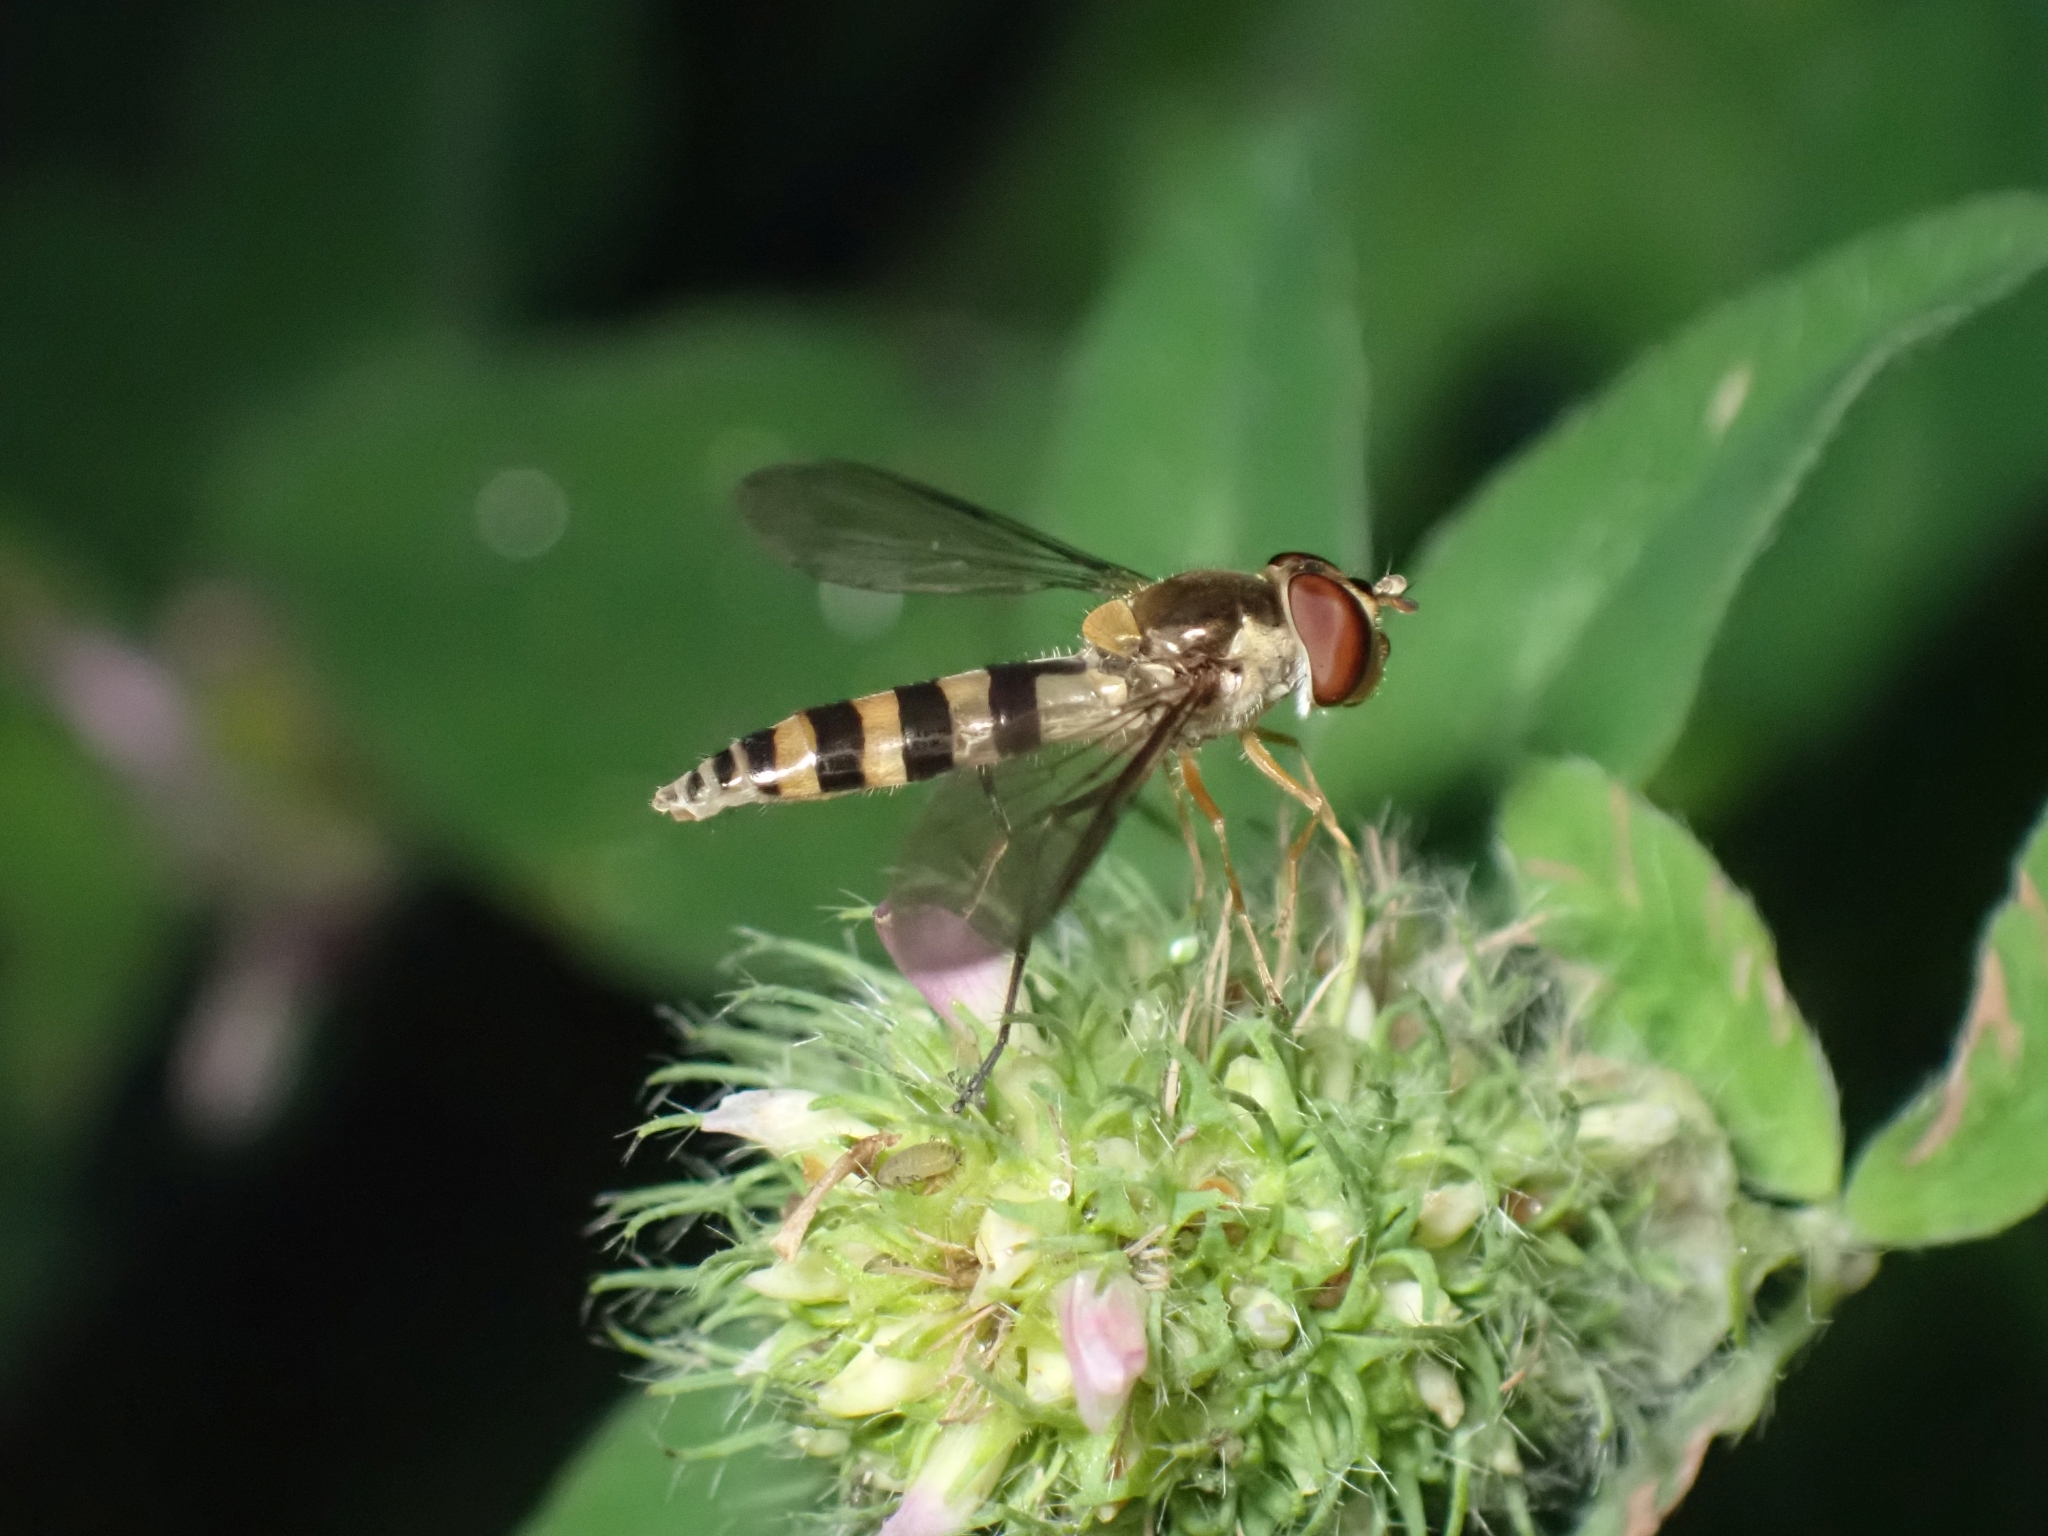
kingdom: Animalia
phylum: Arthropoda
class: Insecta
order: Diptera
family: Syrphidae
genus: Meliscaeva
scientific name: Meliscaeva cinctella
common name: American thintail fly
